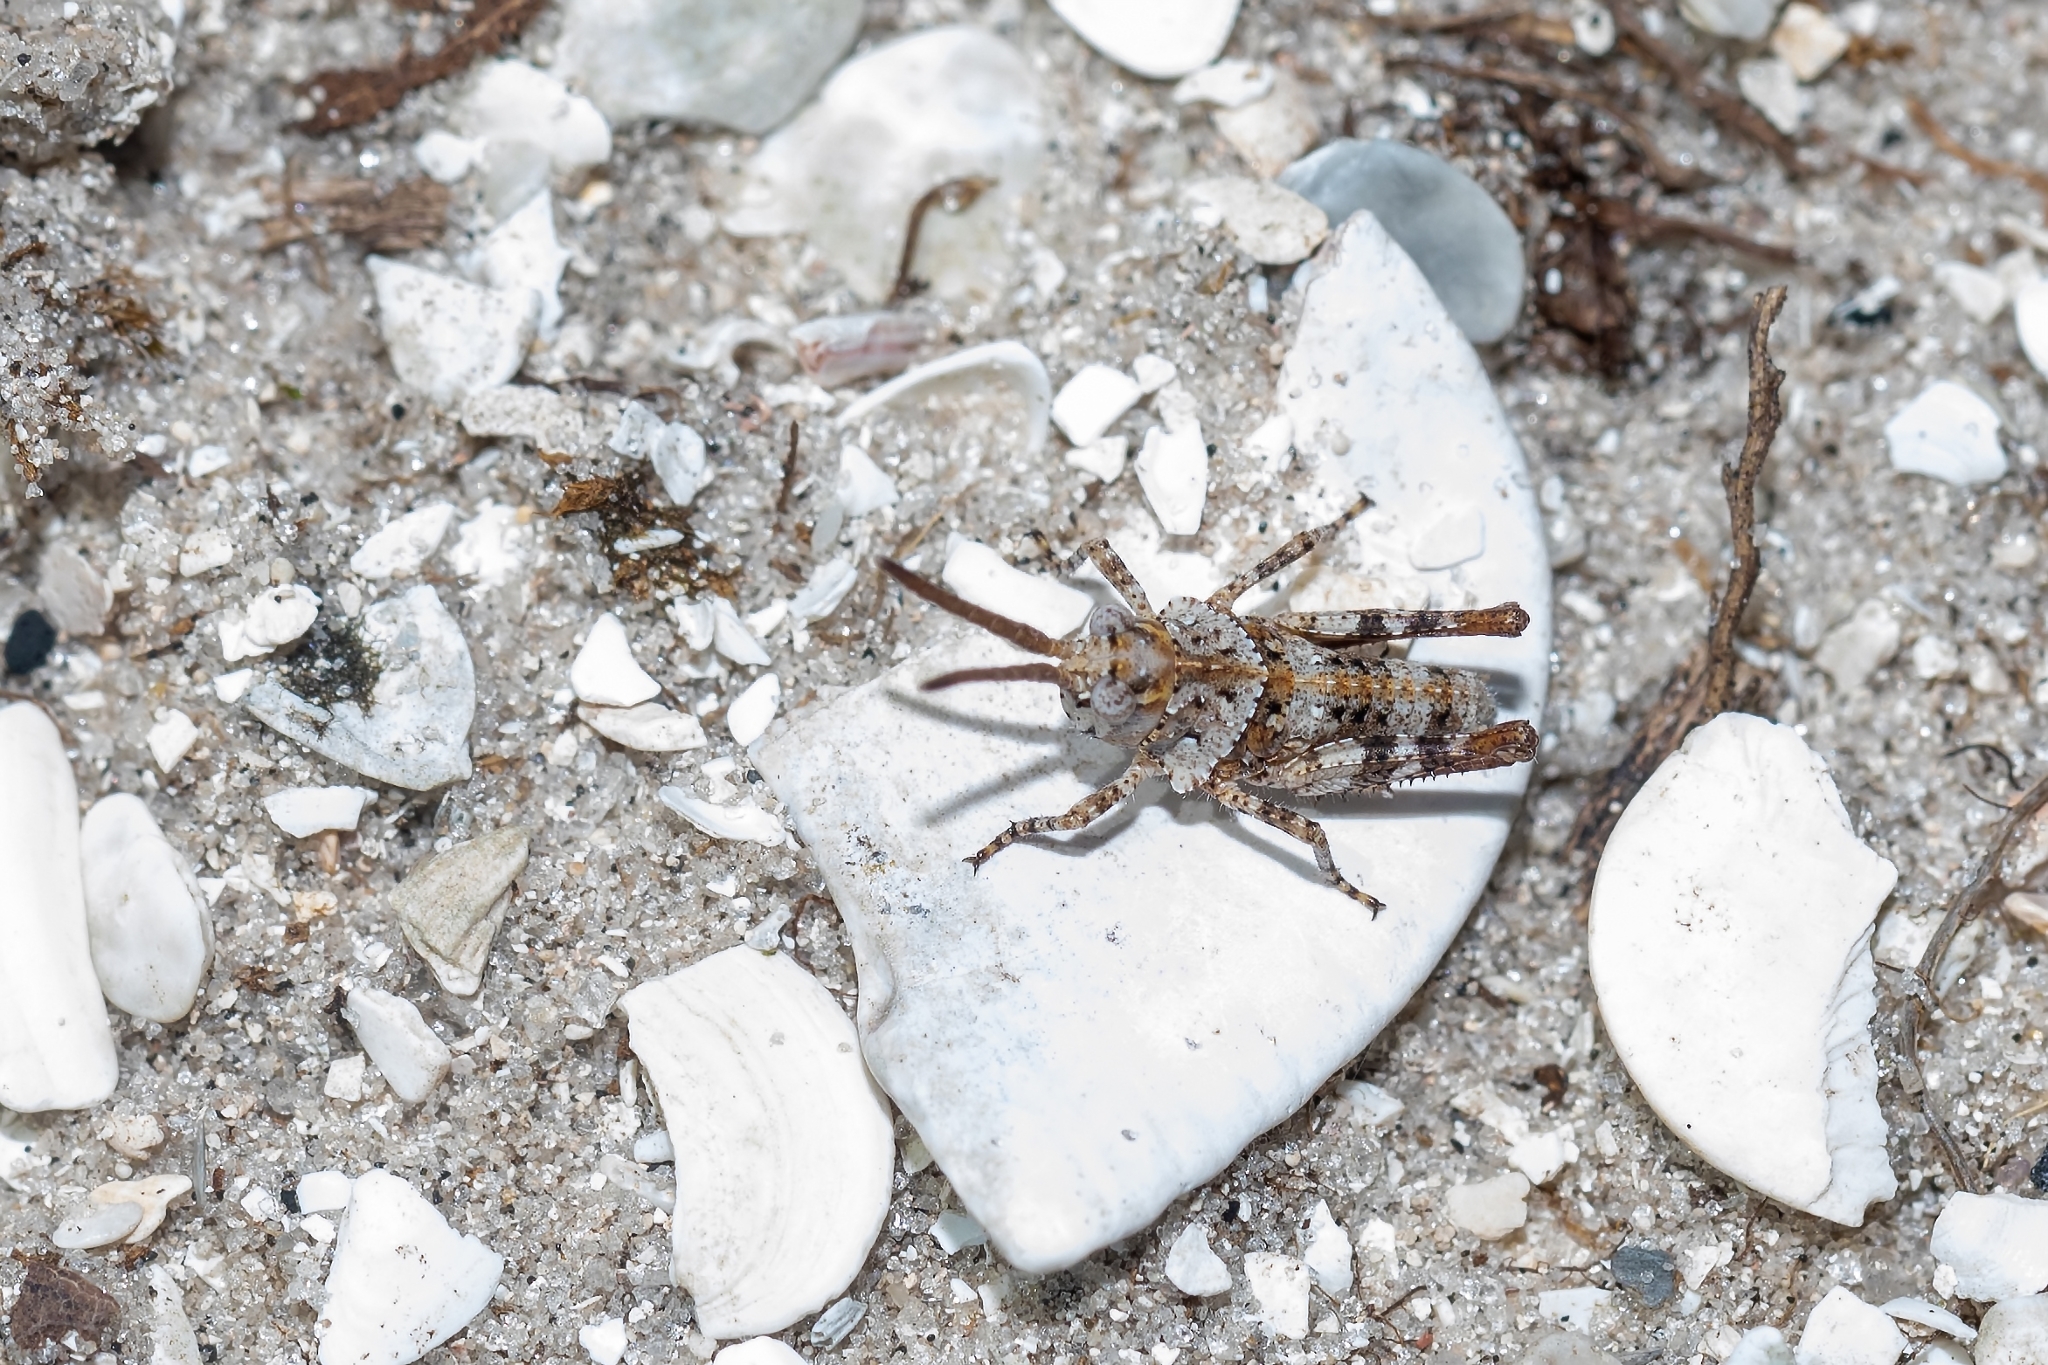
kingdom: Animalia
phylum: Arthropoda
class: Insecta
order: Orthoptera
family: Acrididae
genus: Psinidia
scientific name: Psinidia fenestralis
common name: Long-horned locust
